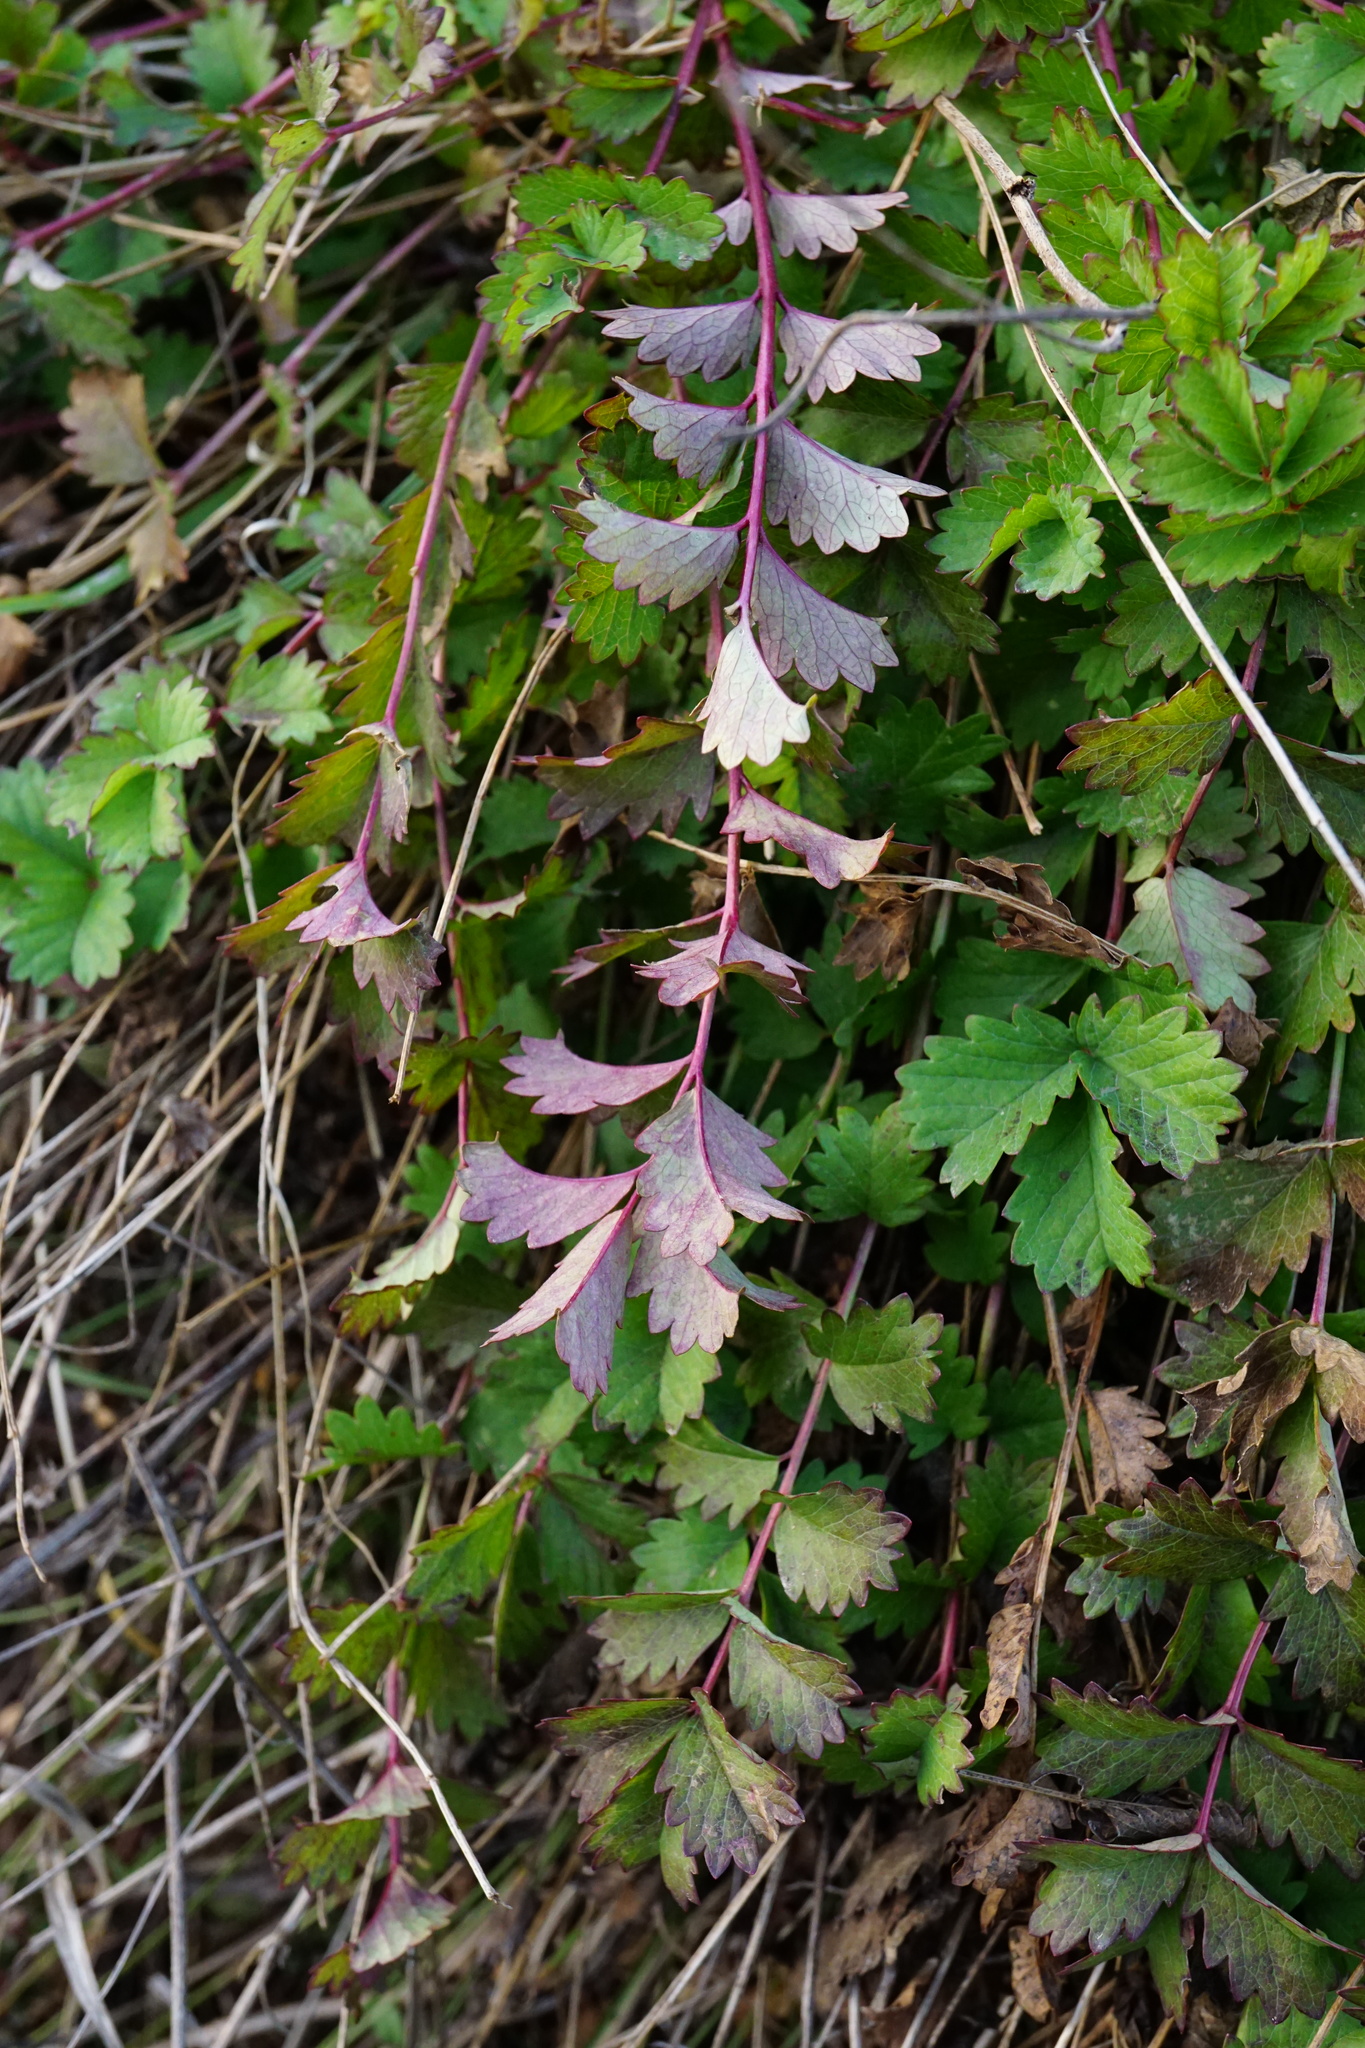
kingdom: Plantae
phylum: Tracheophyta
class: Magnoliopsida
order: Rosales
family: Rosaceae
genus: Poterium
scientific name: Poterium sanguisorba
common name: Salad burnet
